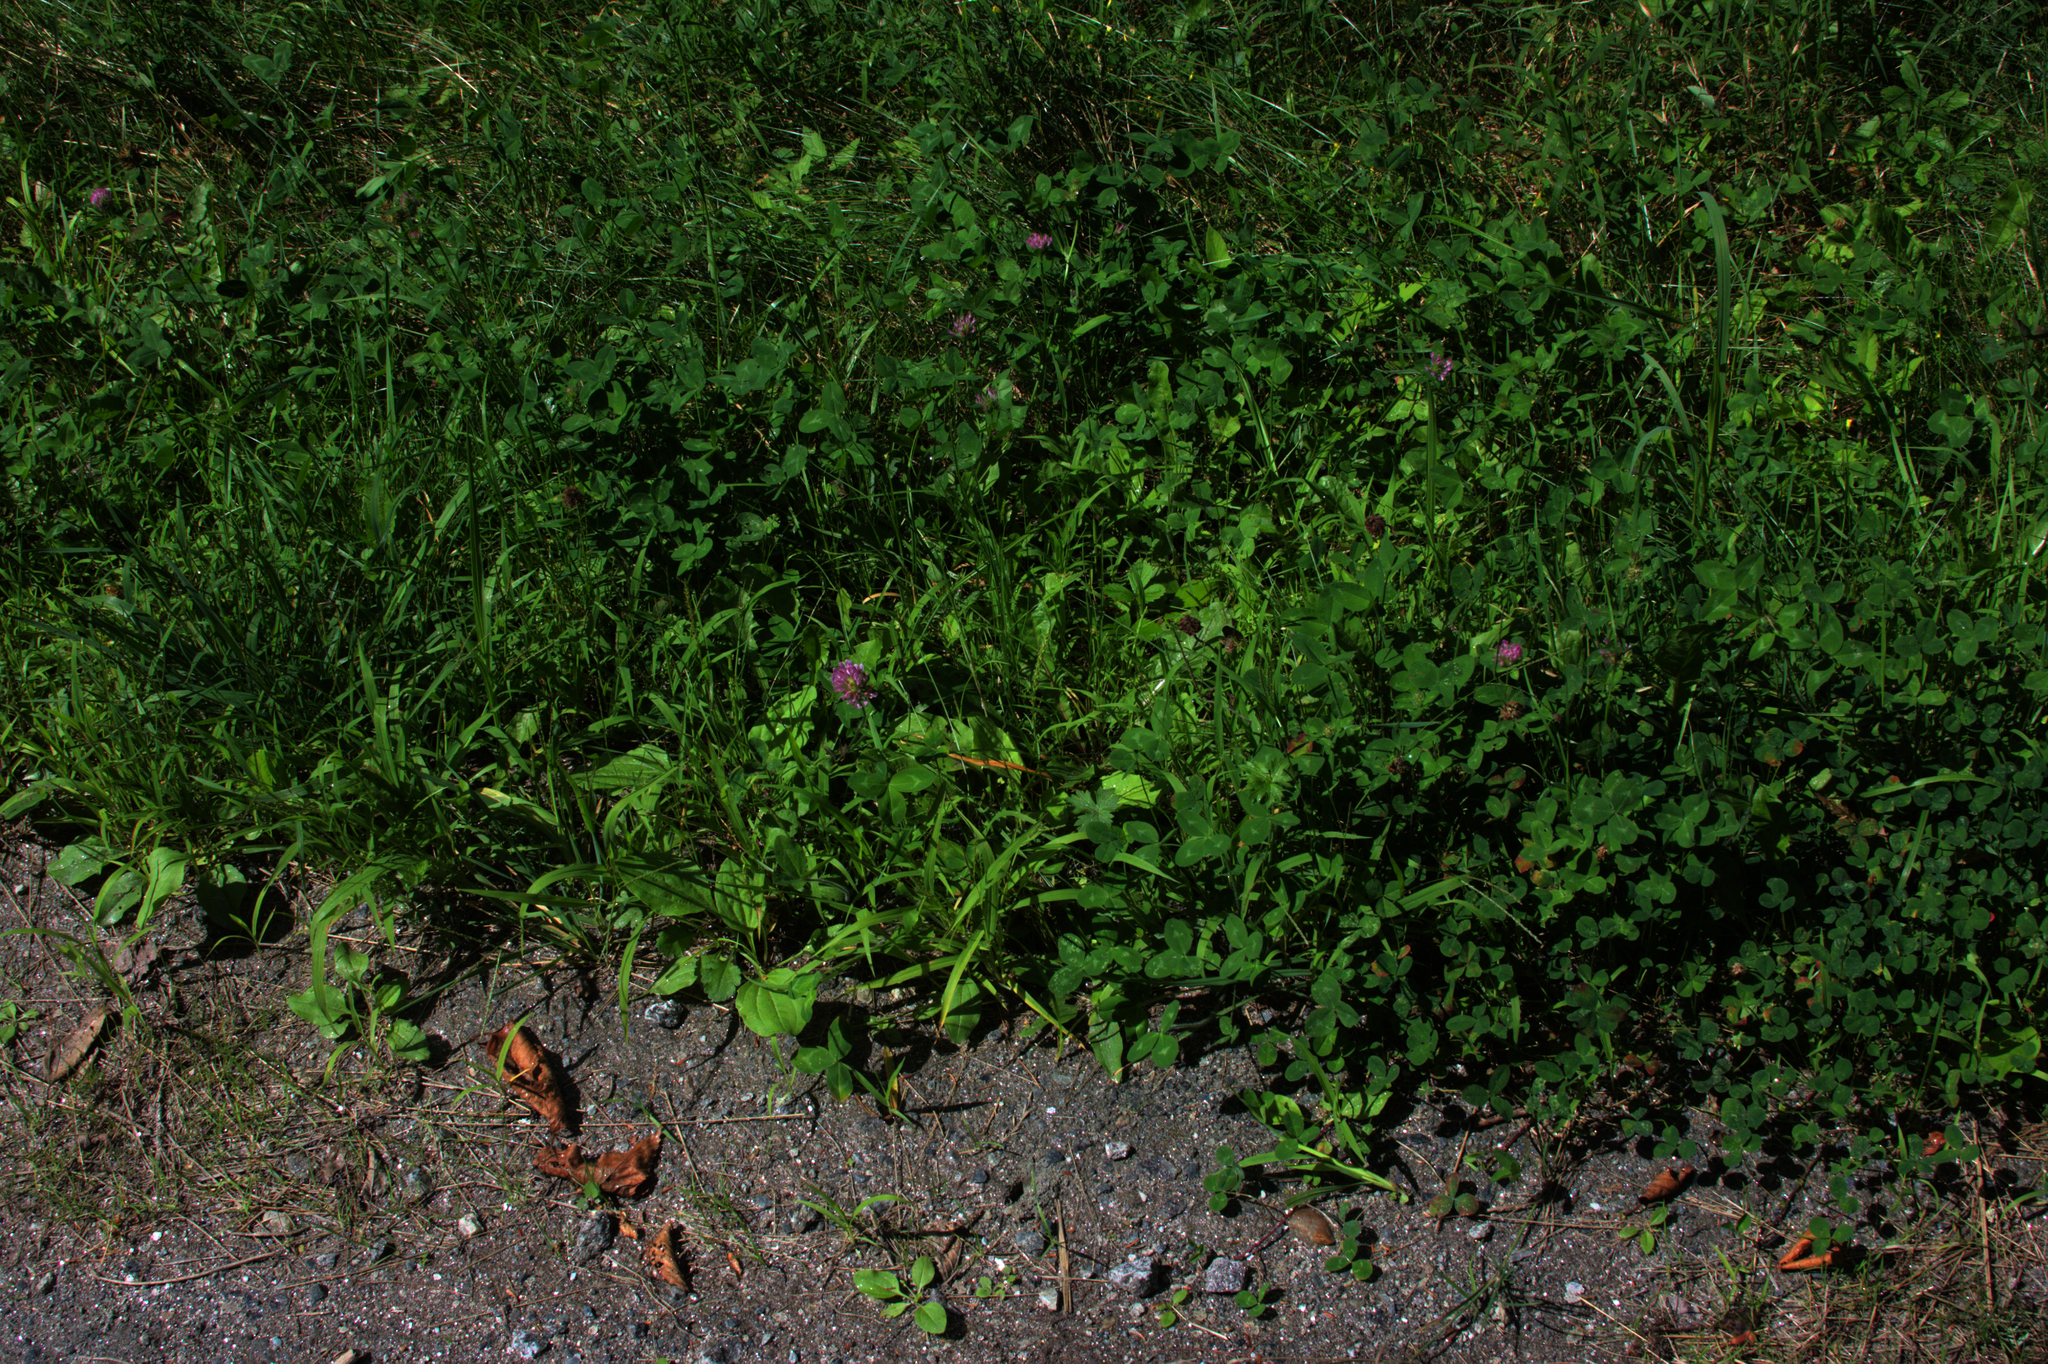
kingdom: Plantae
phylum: Tracheophyta
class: Magnoliopsida
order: Fabales
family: Fabaceae
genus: Trifolium
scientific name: Trifolium pratense
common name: Red clover
